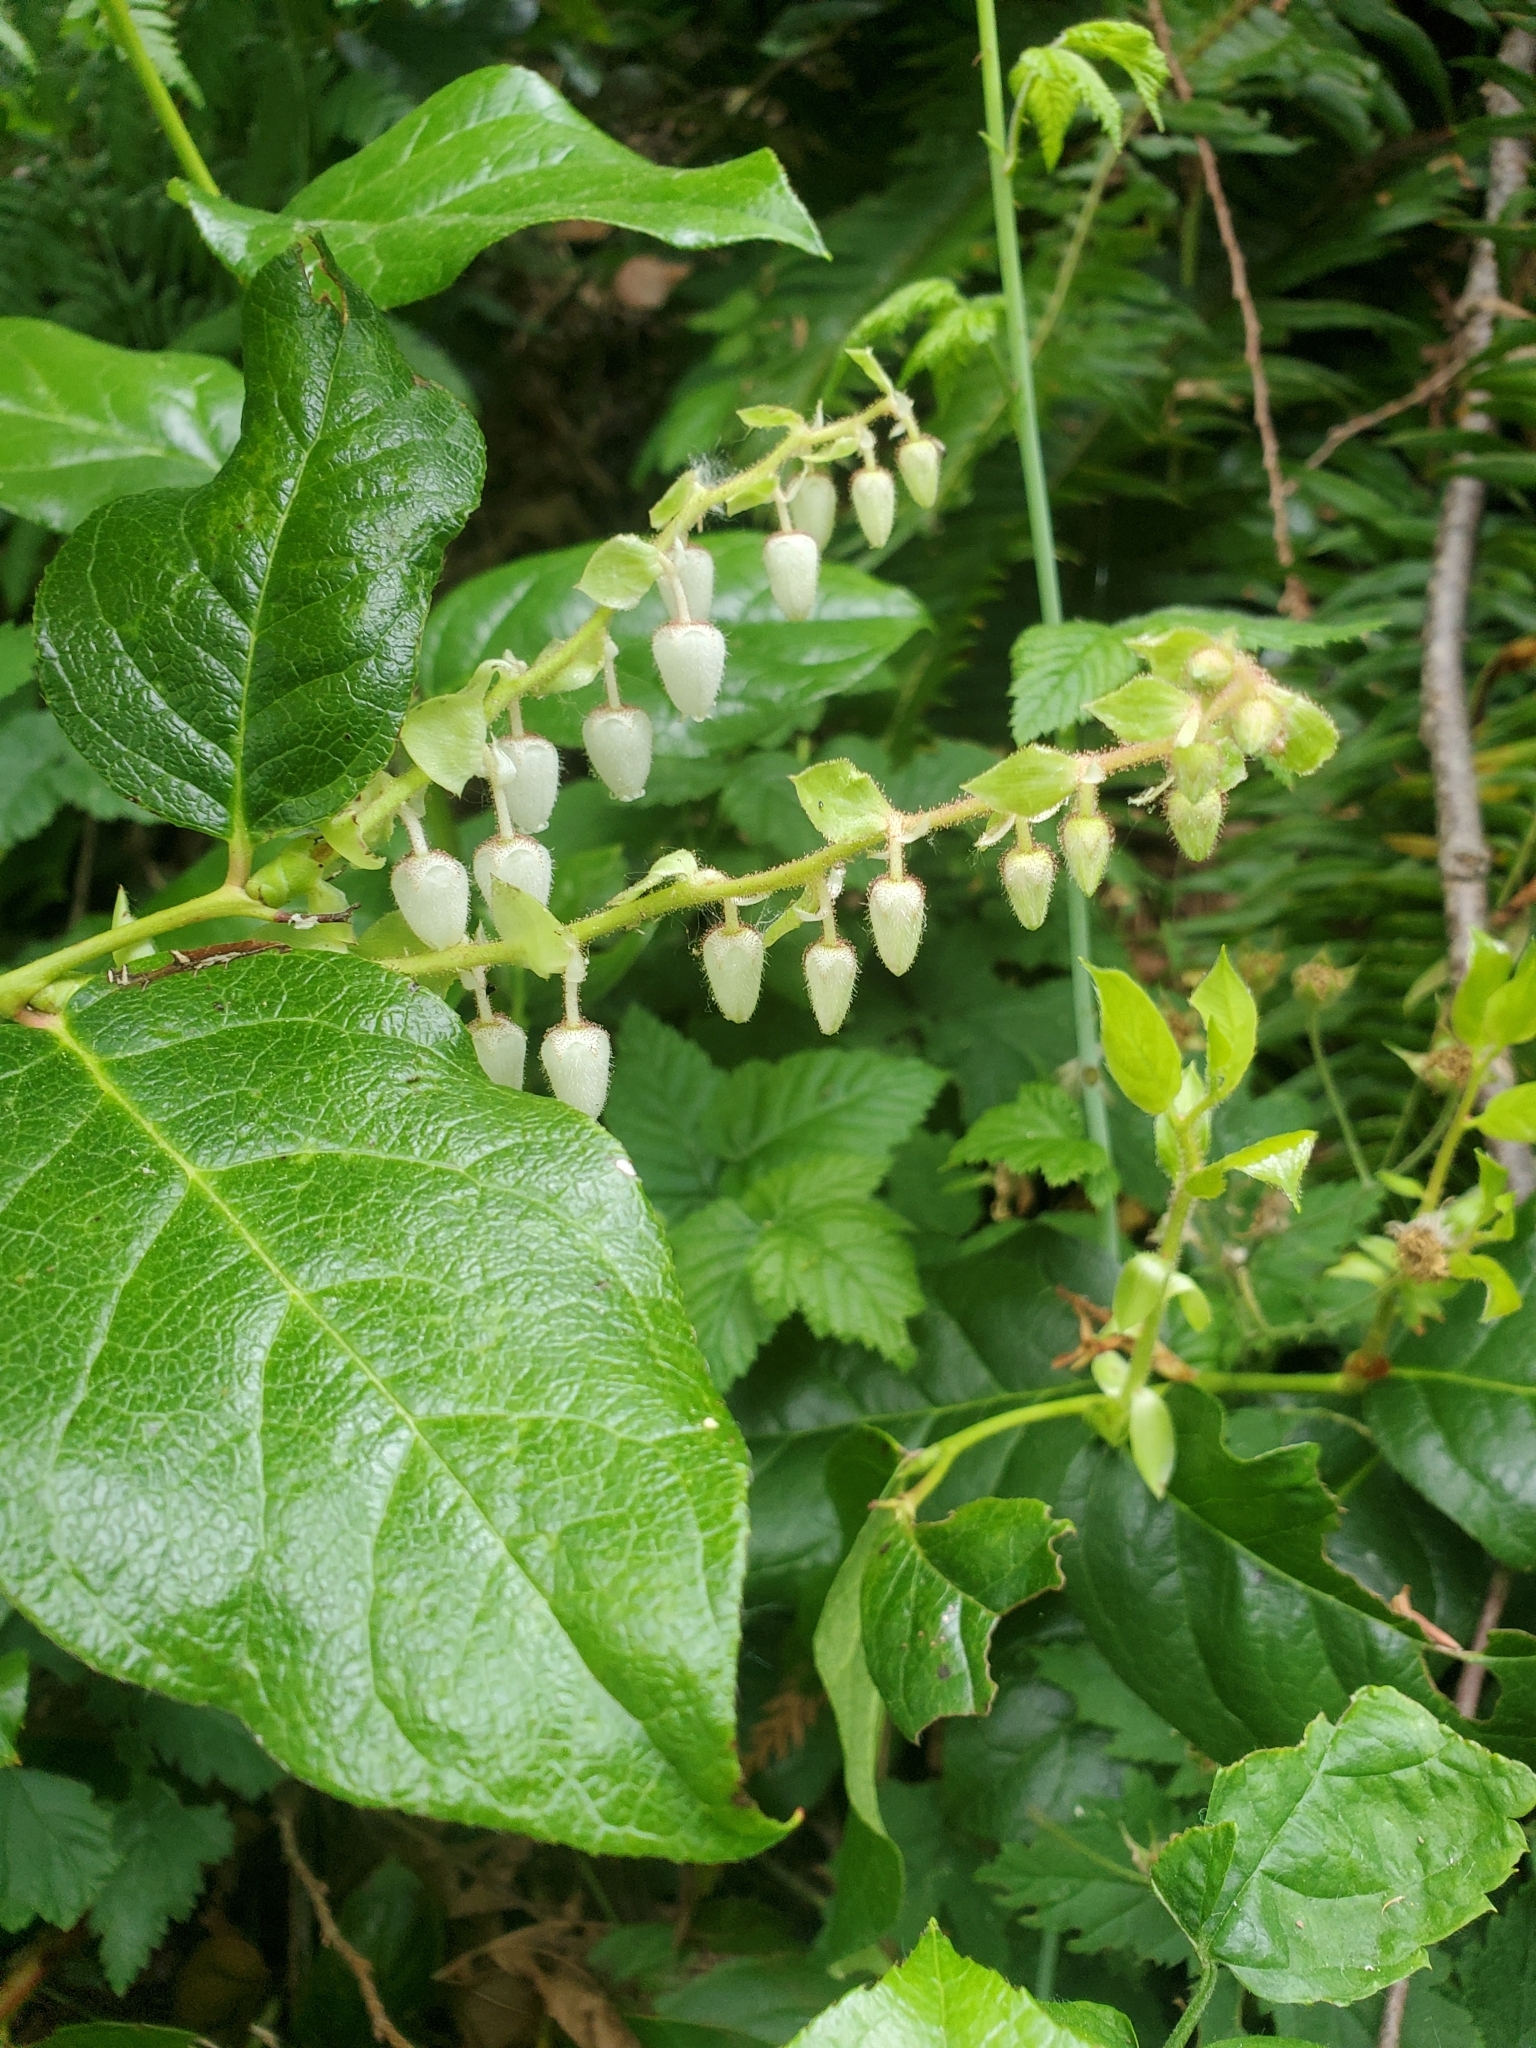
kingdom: Plantae
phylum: Tracheophyta
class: Magnoliopsida
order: Ericales
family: Ericaceae
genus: Gaultheria
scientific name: Gaultheria shallon
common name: Shallon
